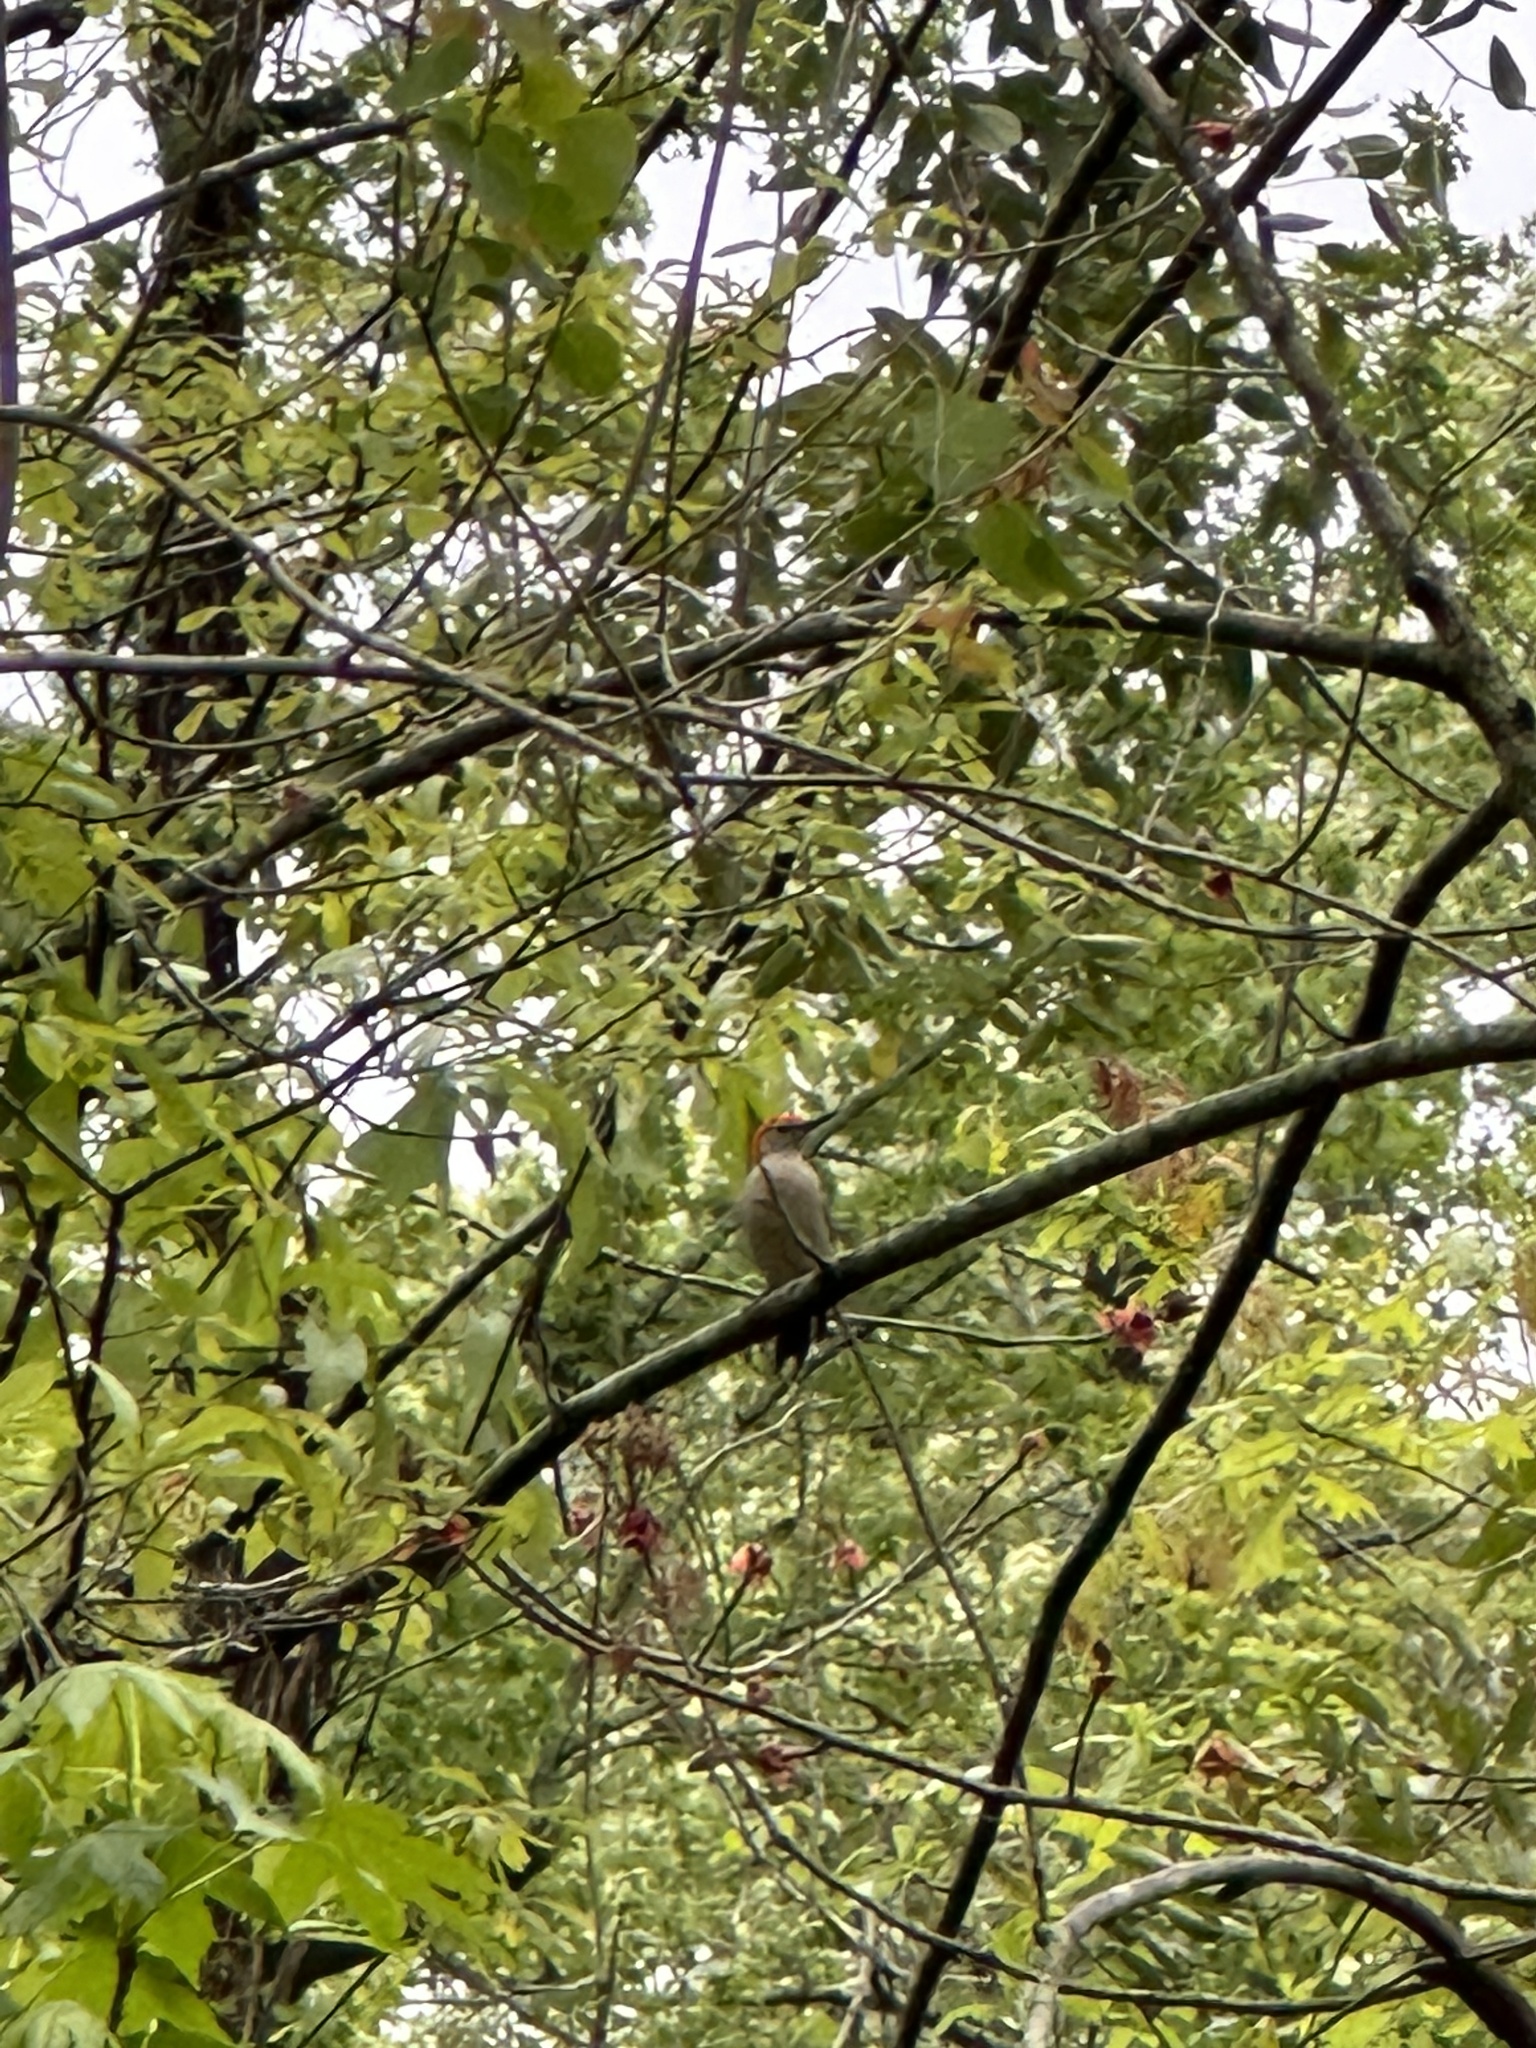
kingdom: Animalia
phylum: Chordata
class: Aves
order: Piciformes
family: Picidae
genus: Melanerpes
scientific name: Melanerpes carolinus
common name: Red-bellied woodpecker
